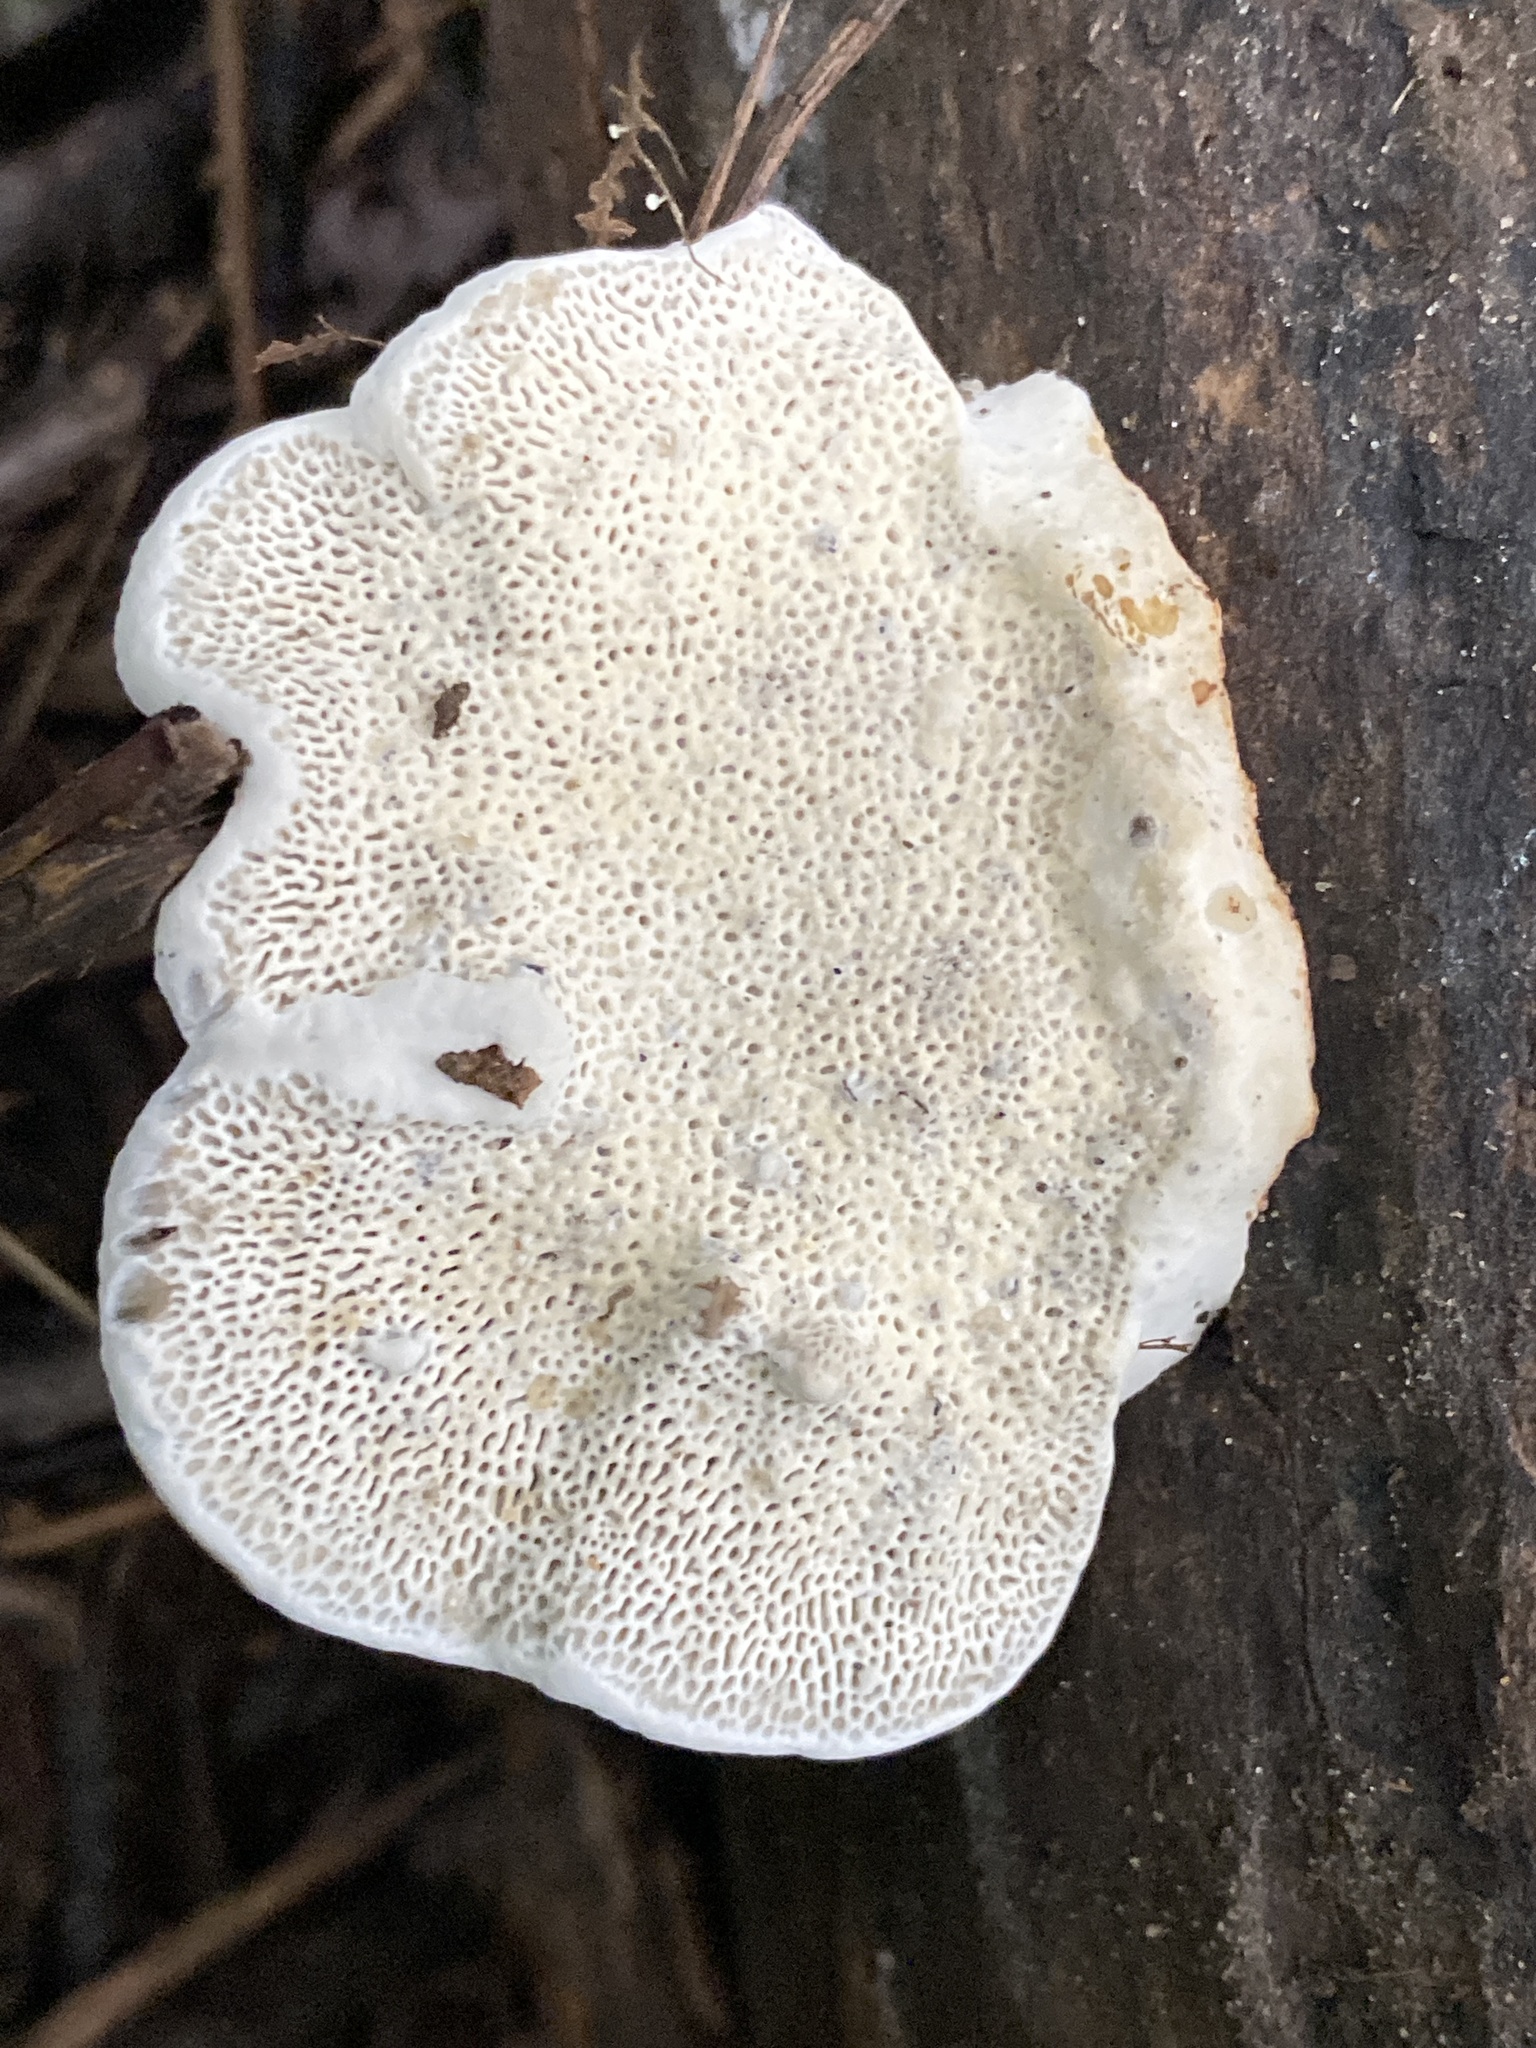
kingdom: Fungi
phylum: Basidiomycota
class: Agaricomycetes
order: Polyporales
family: Polyporaceae
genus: Daedaleopsis
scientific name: Daedaleopsis confragosa
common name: Blushing bracket
